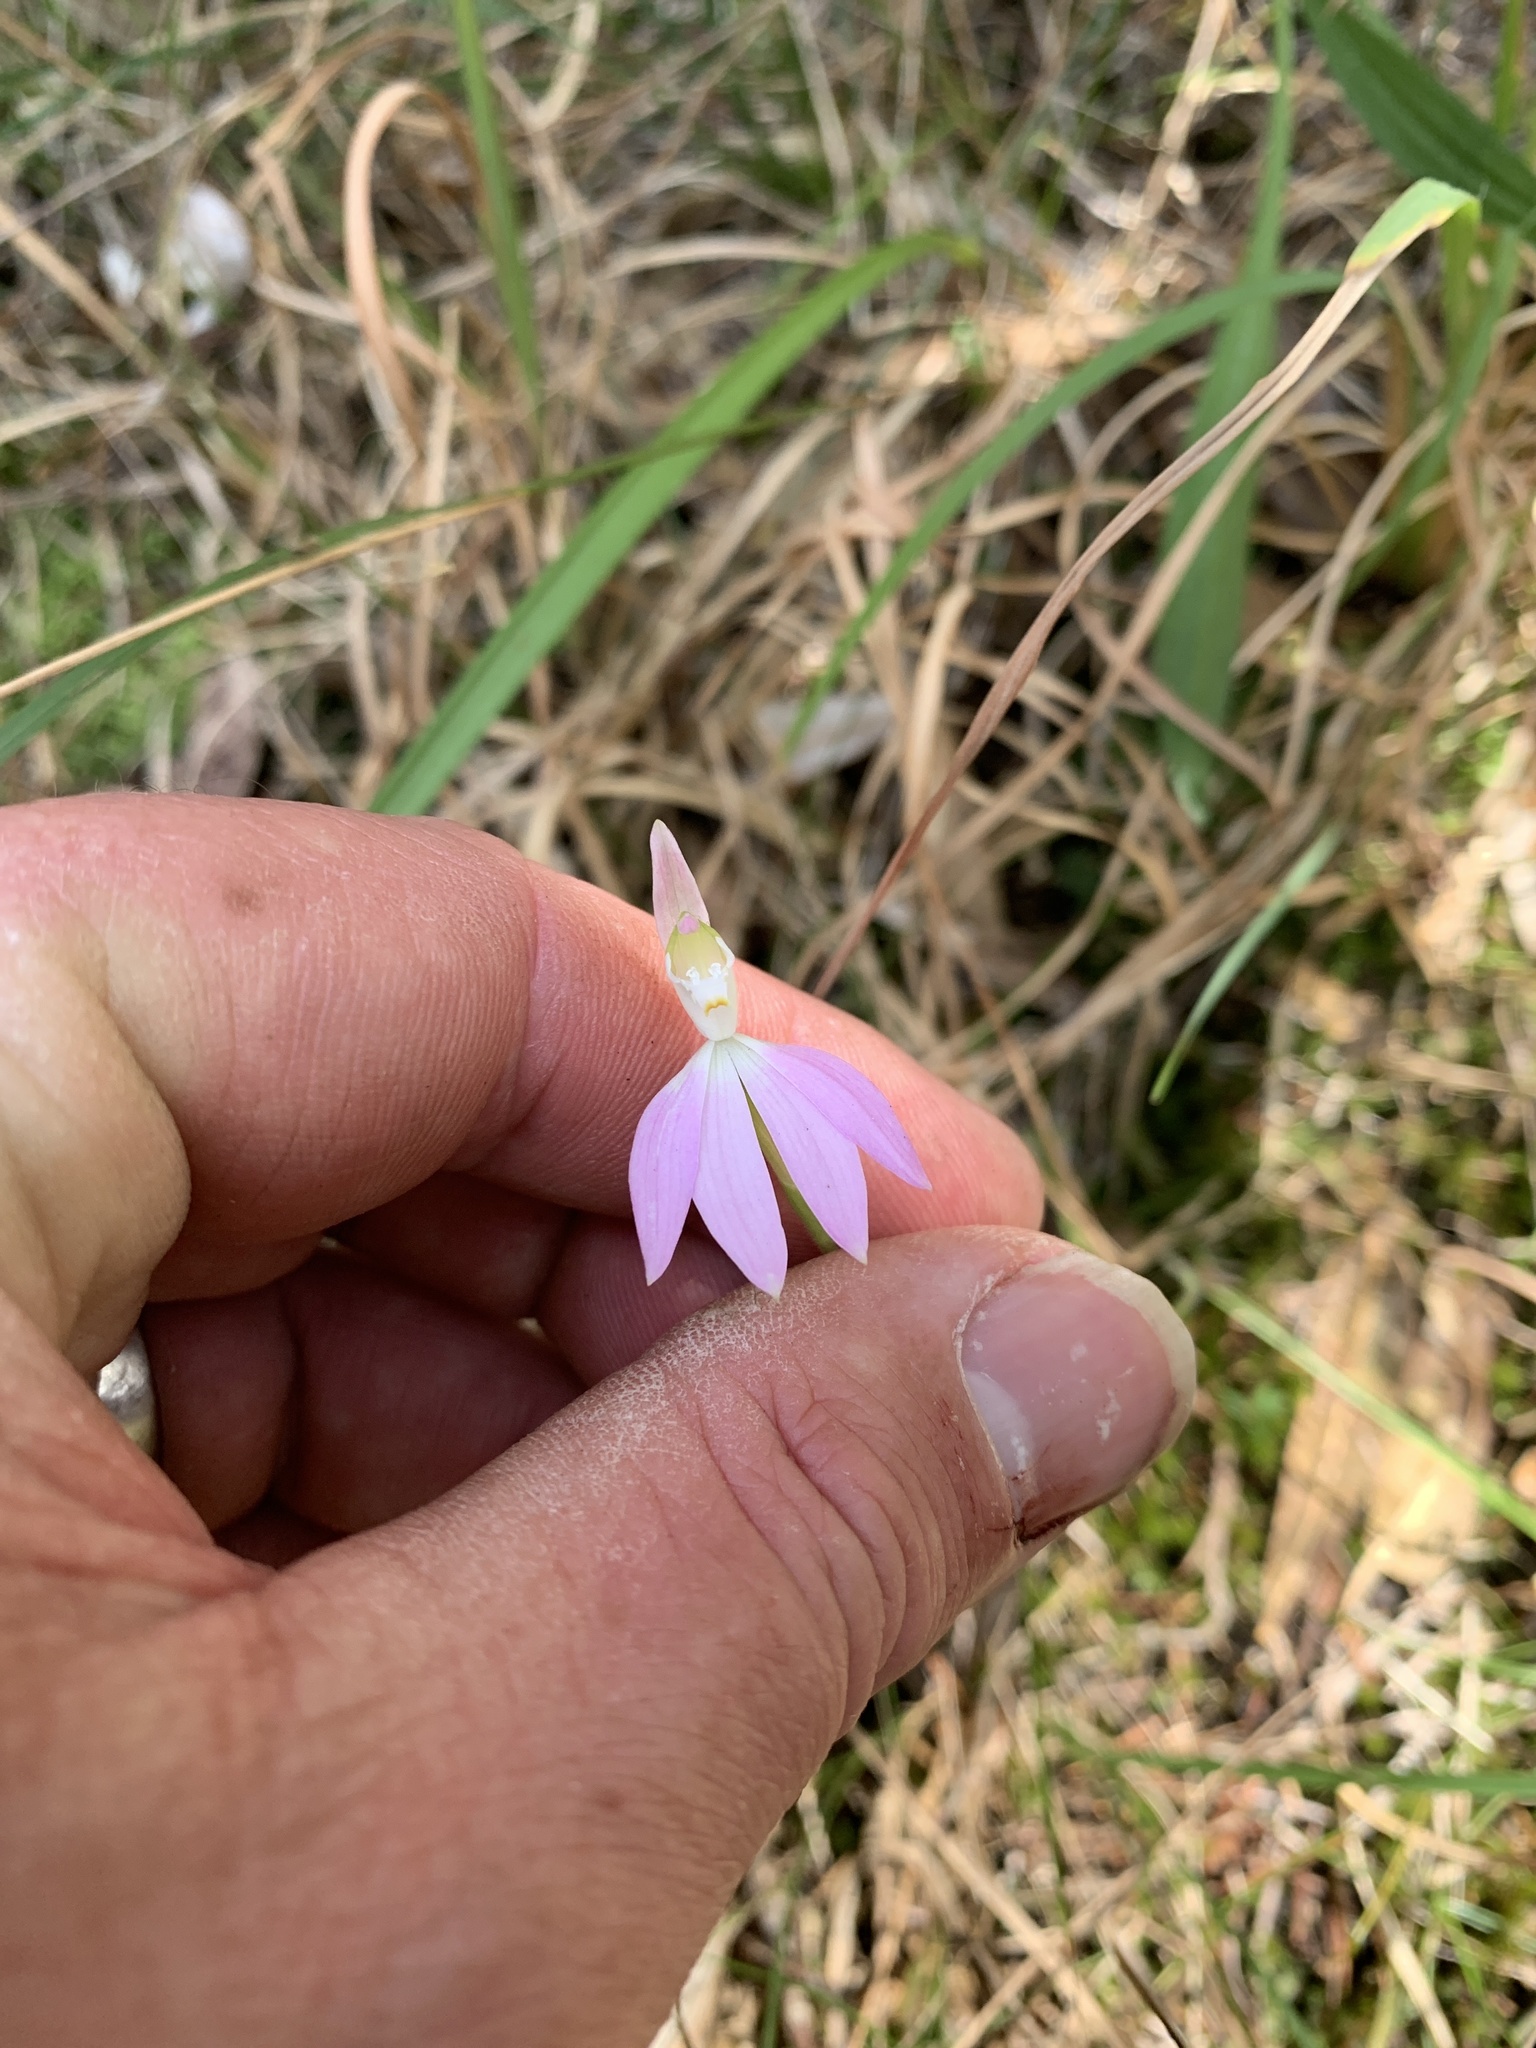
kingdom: Plantae
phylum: Tracheophyta
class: Liliopsida
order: Asparagales
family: Orchidaceae
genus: Caladenia
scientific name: Caladenia catenata
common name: White caladenia
